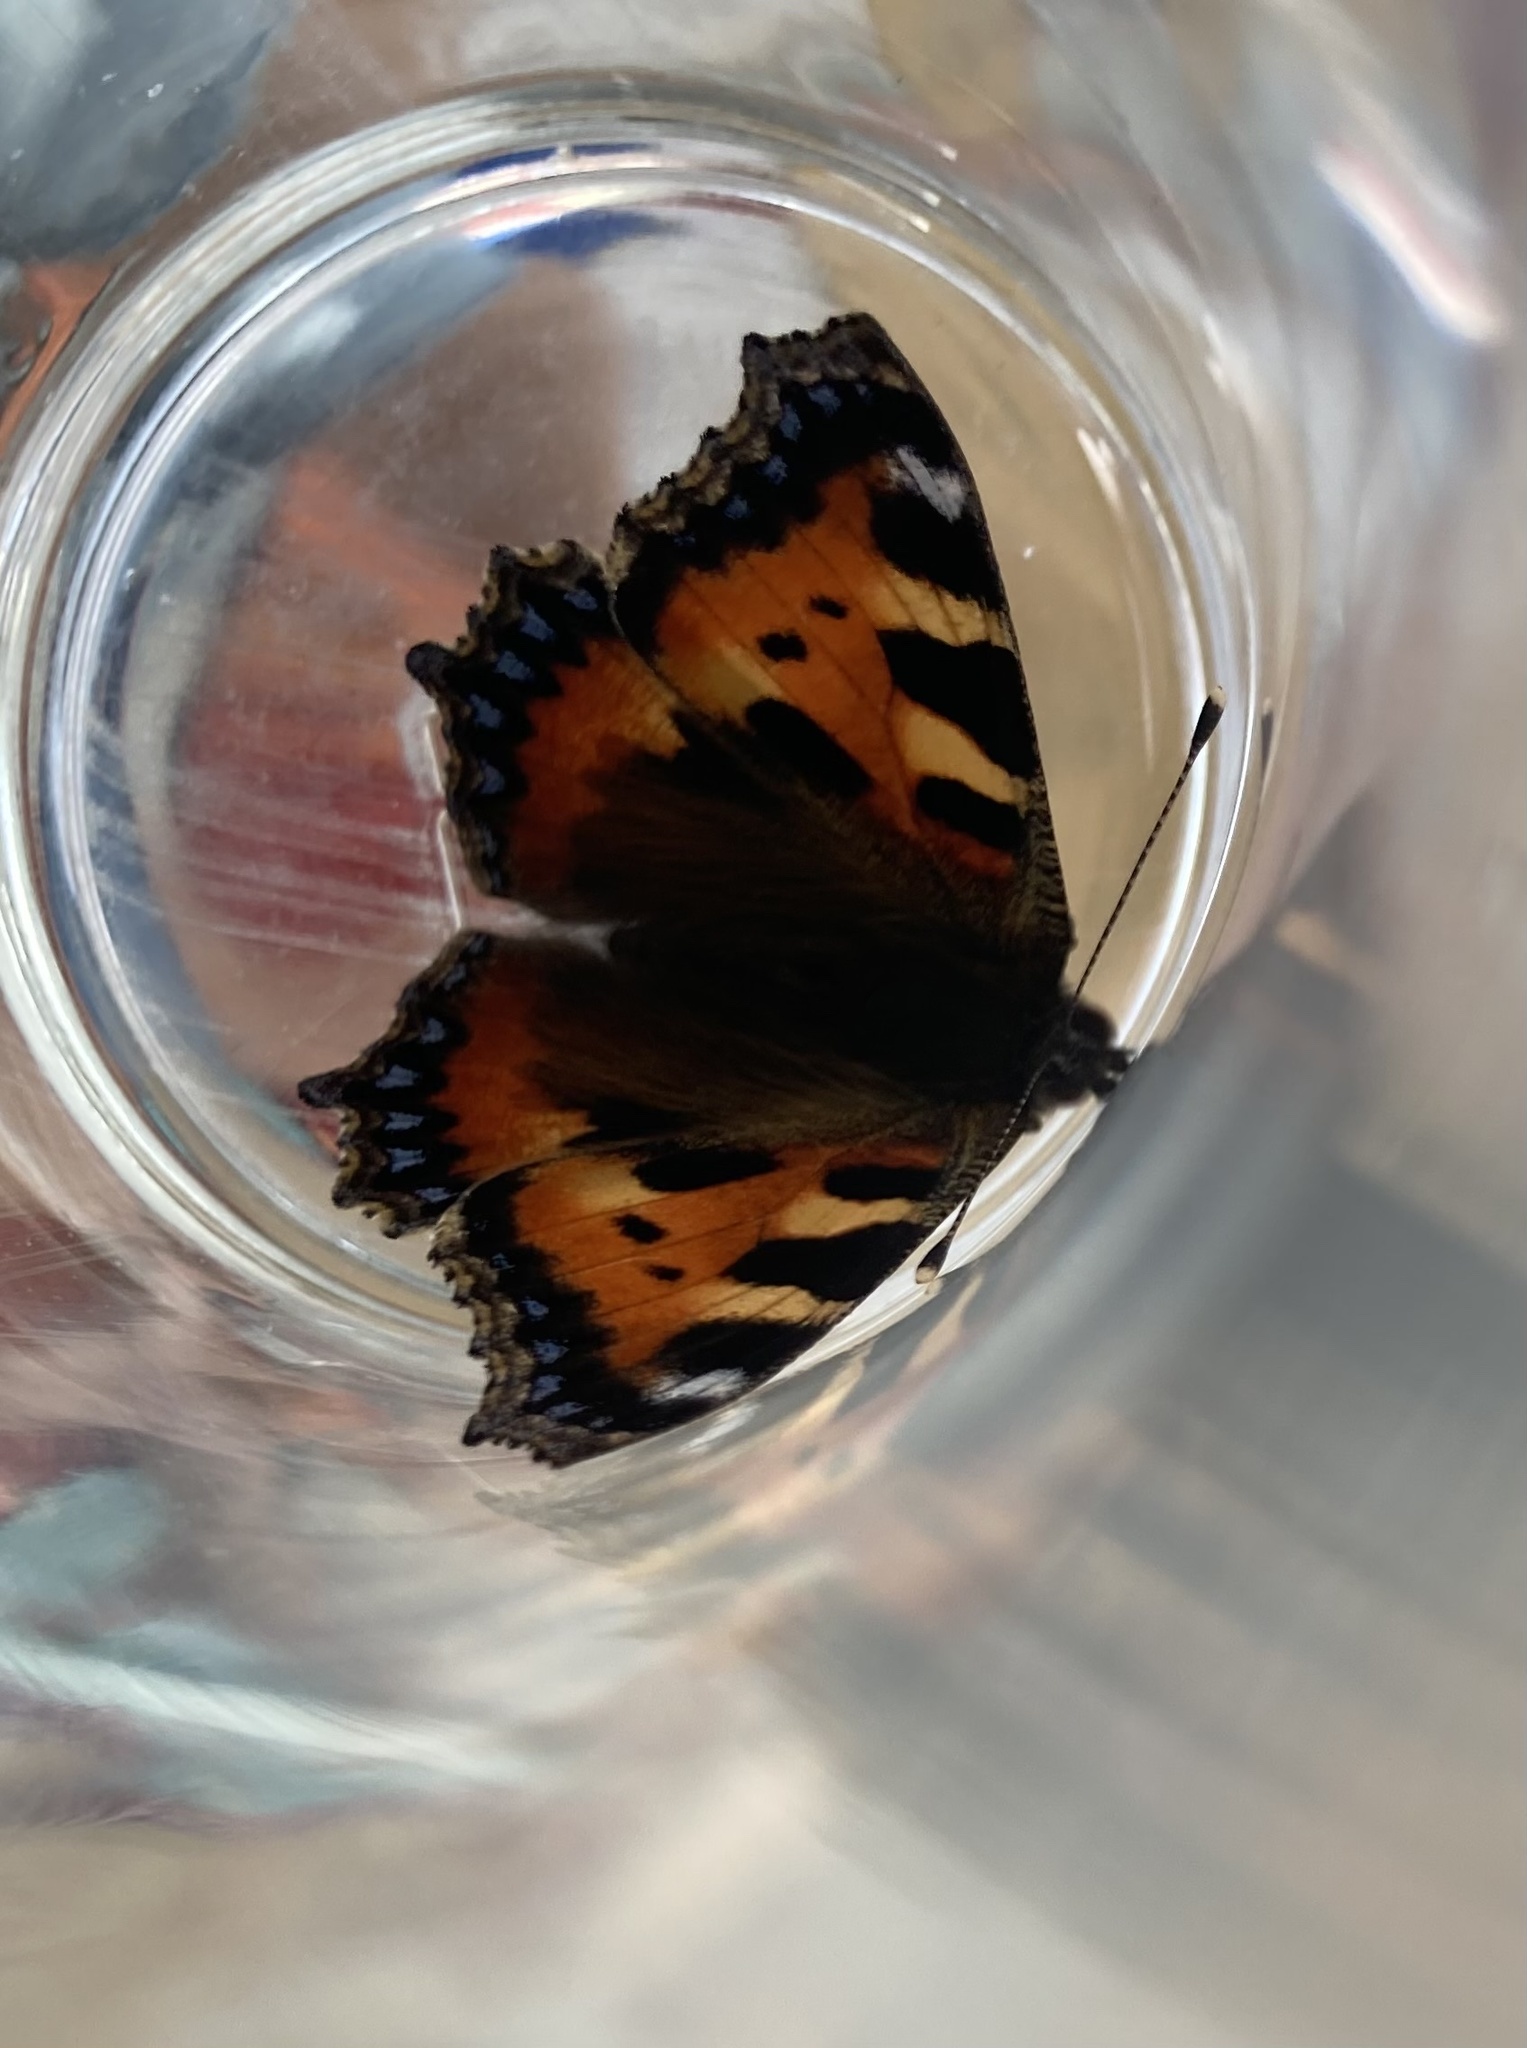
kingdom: Animalia
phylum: Arthropoda
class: Insecta
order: Lepidoptera
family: Nymphalidae
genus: Aglais
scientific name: Aglais urticae
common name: Small tortoiseshell
